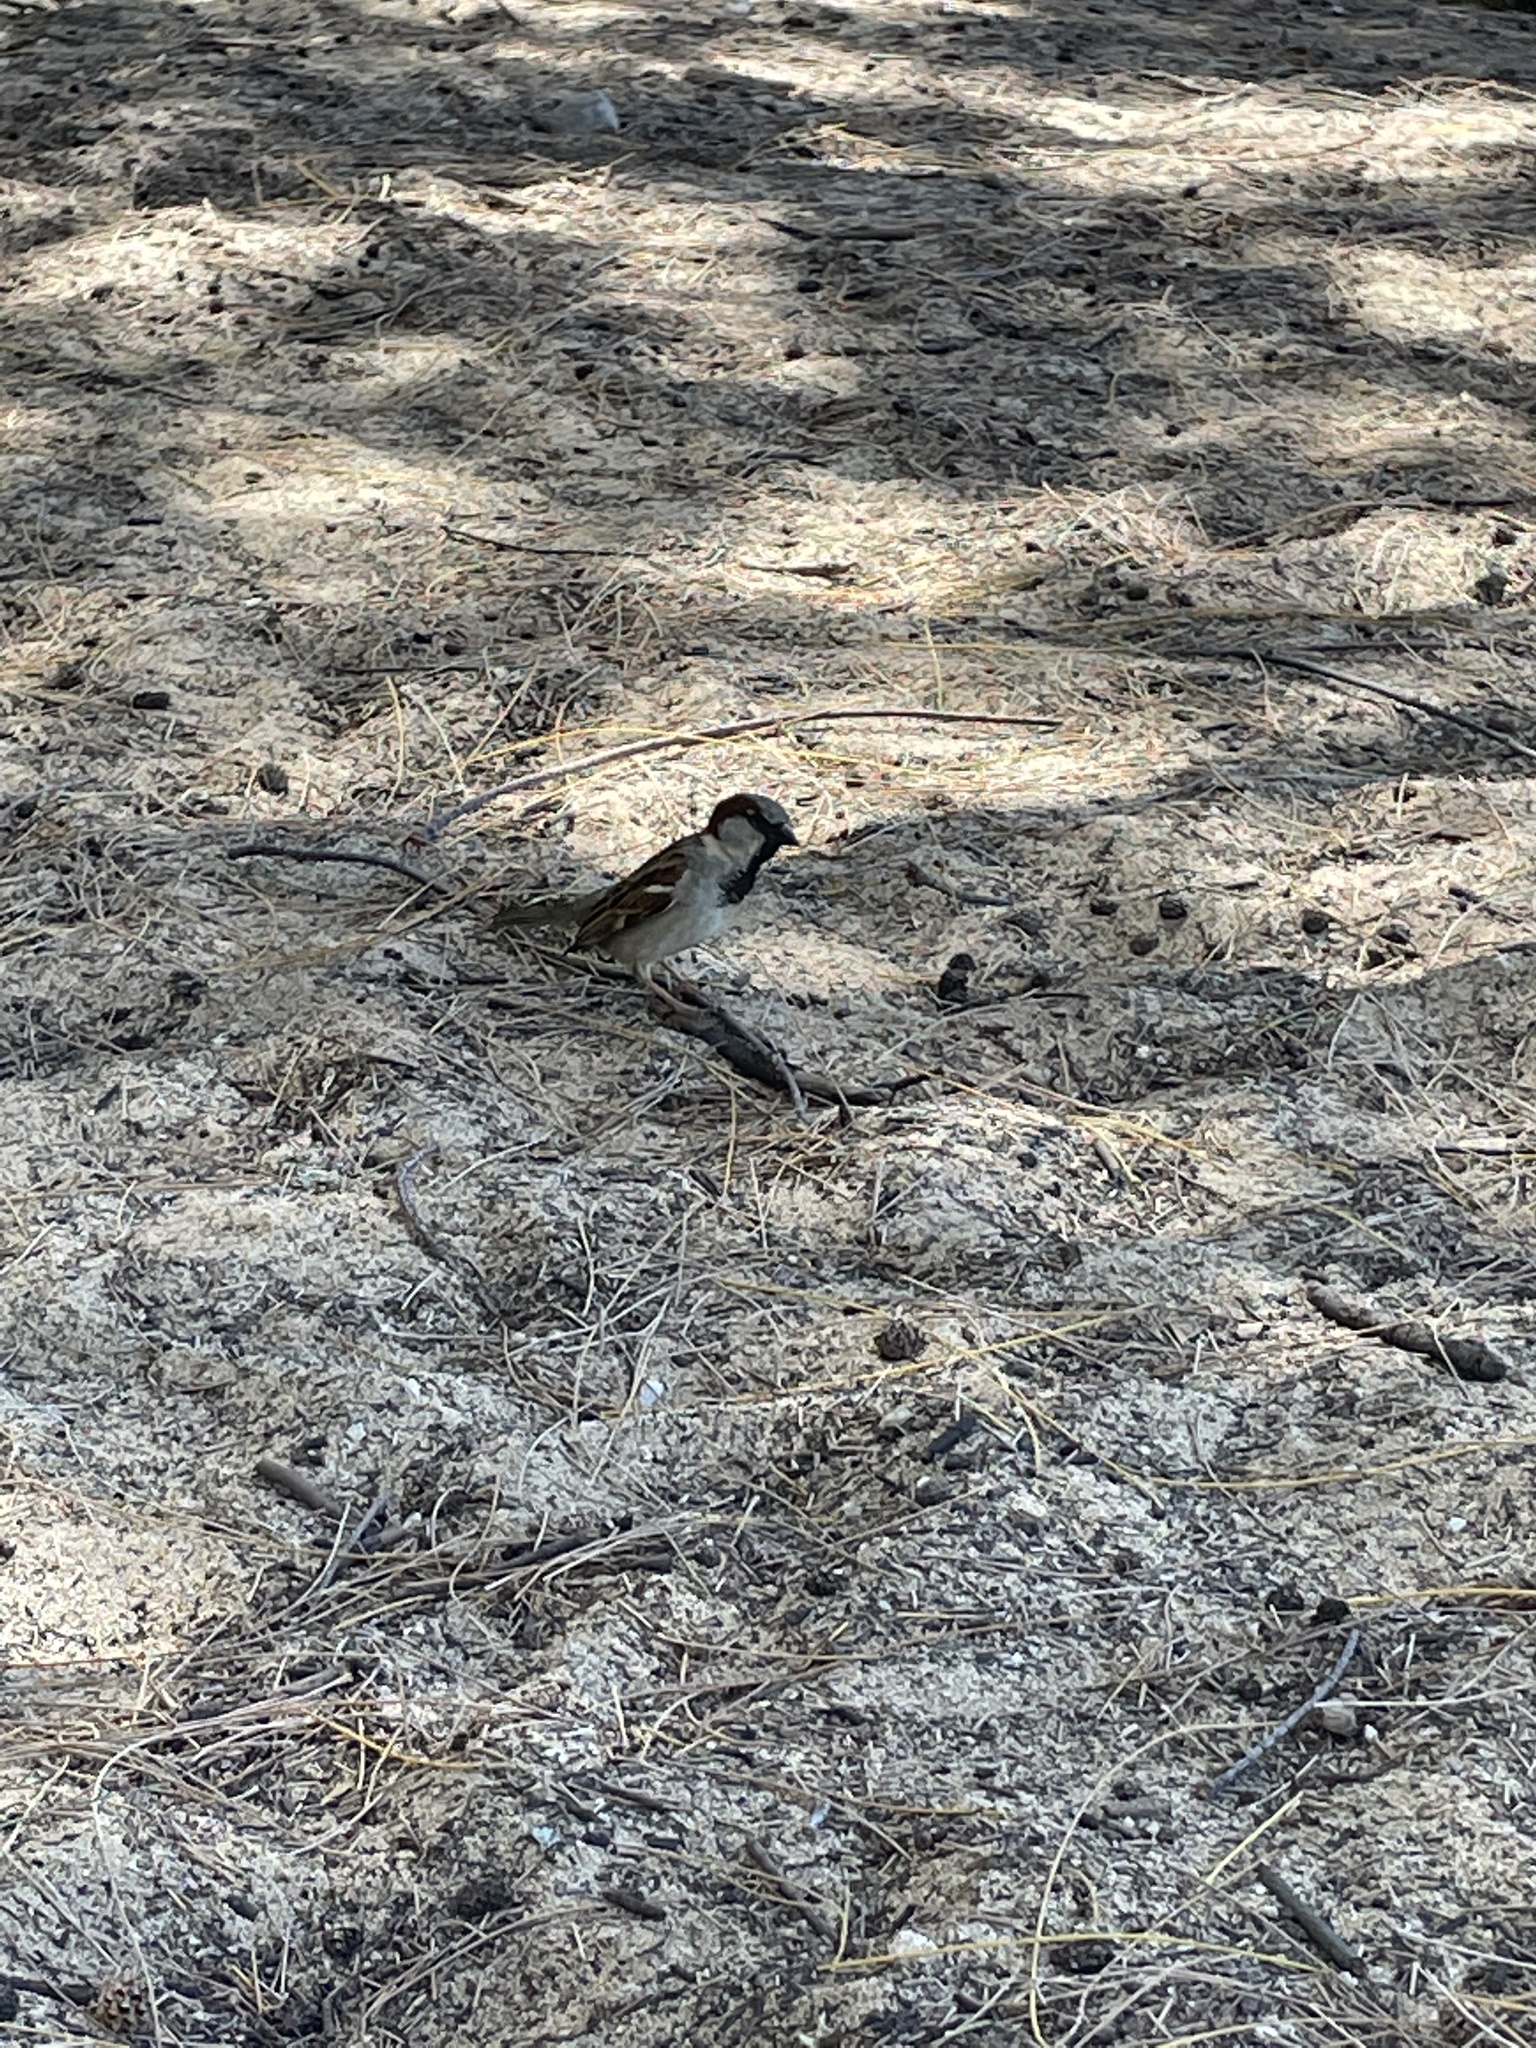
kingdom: Animalia
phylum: Chordata
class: Aves
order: Passeriformes
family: Passeridae
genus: Passer
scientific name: Passer domesticus
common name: House sparrow
